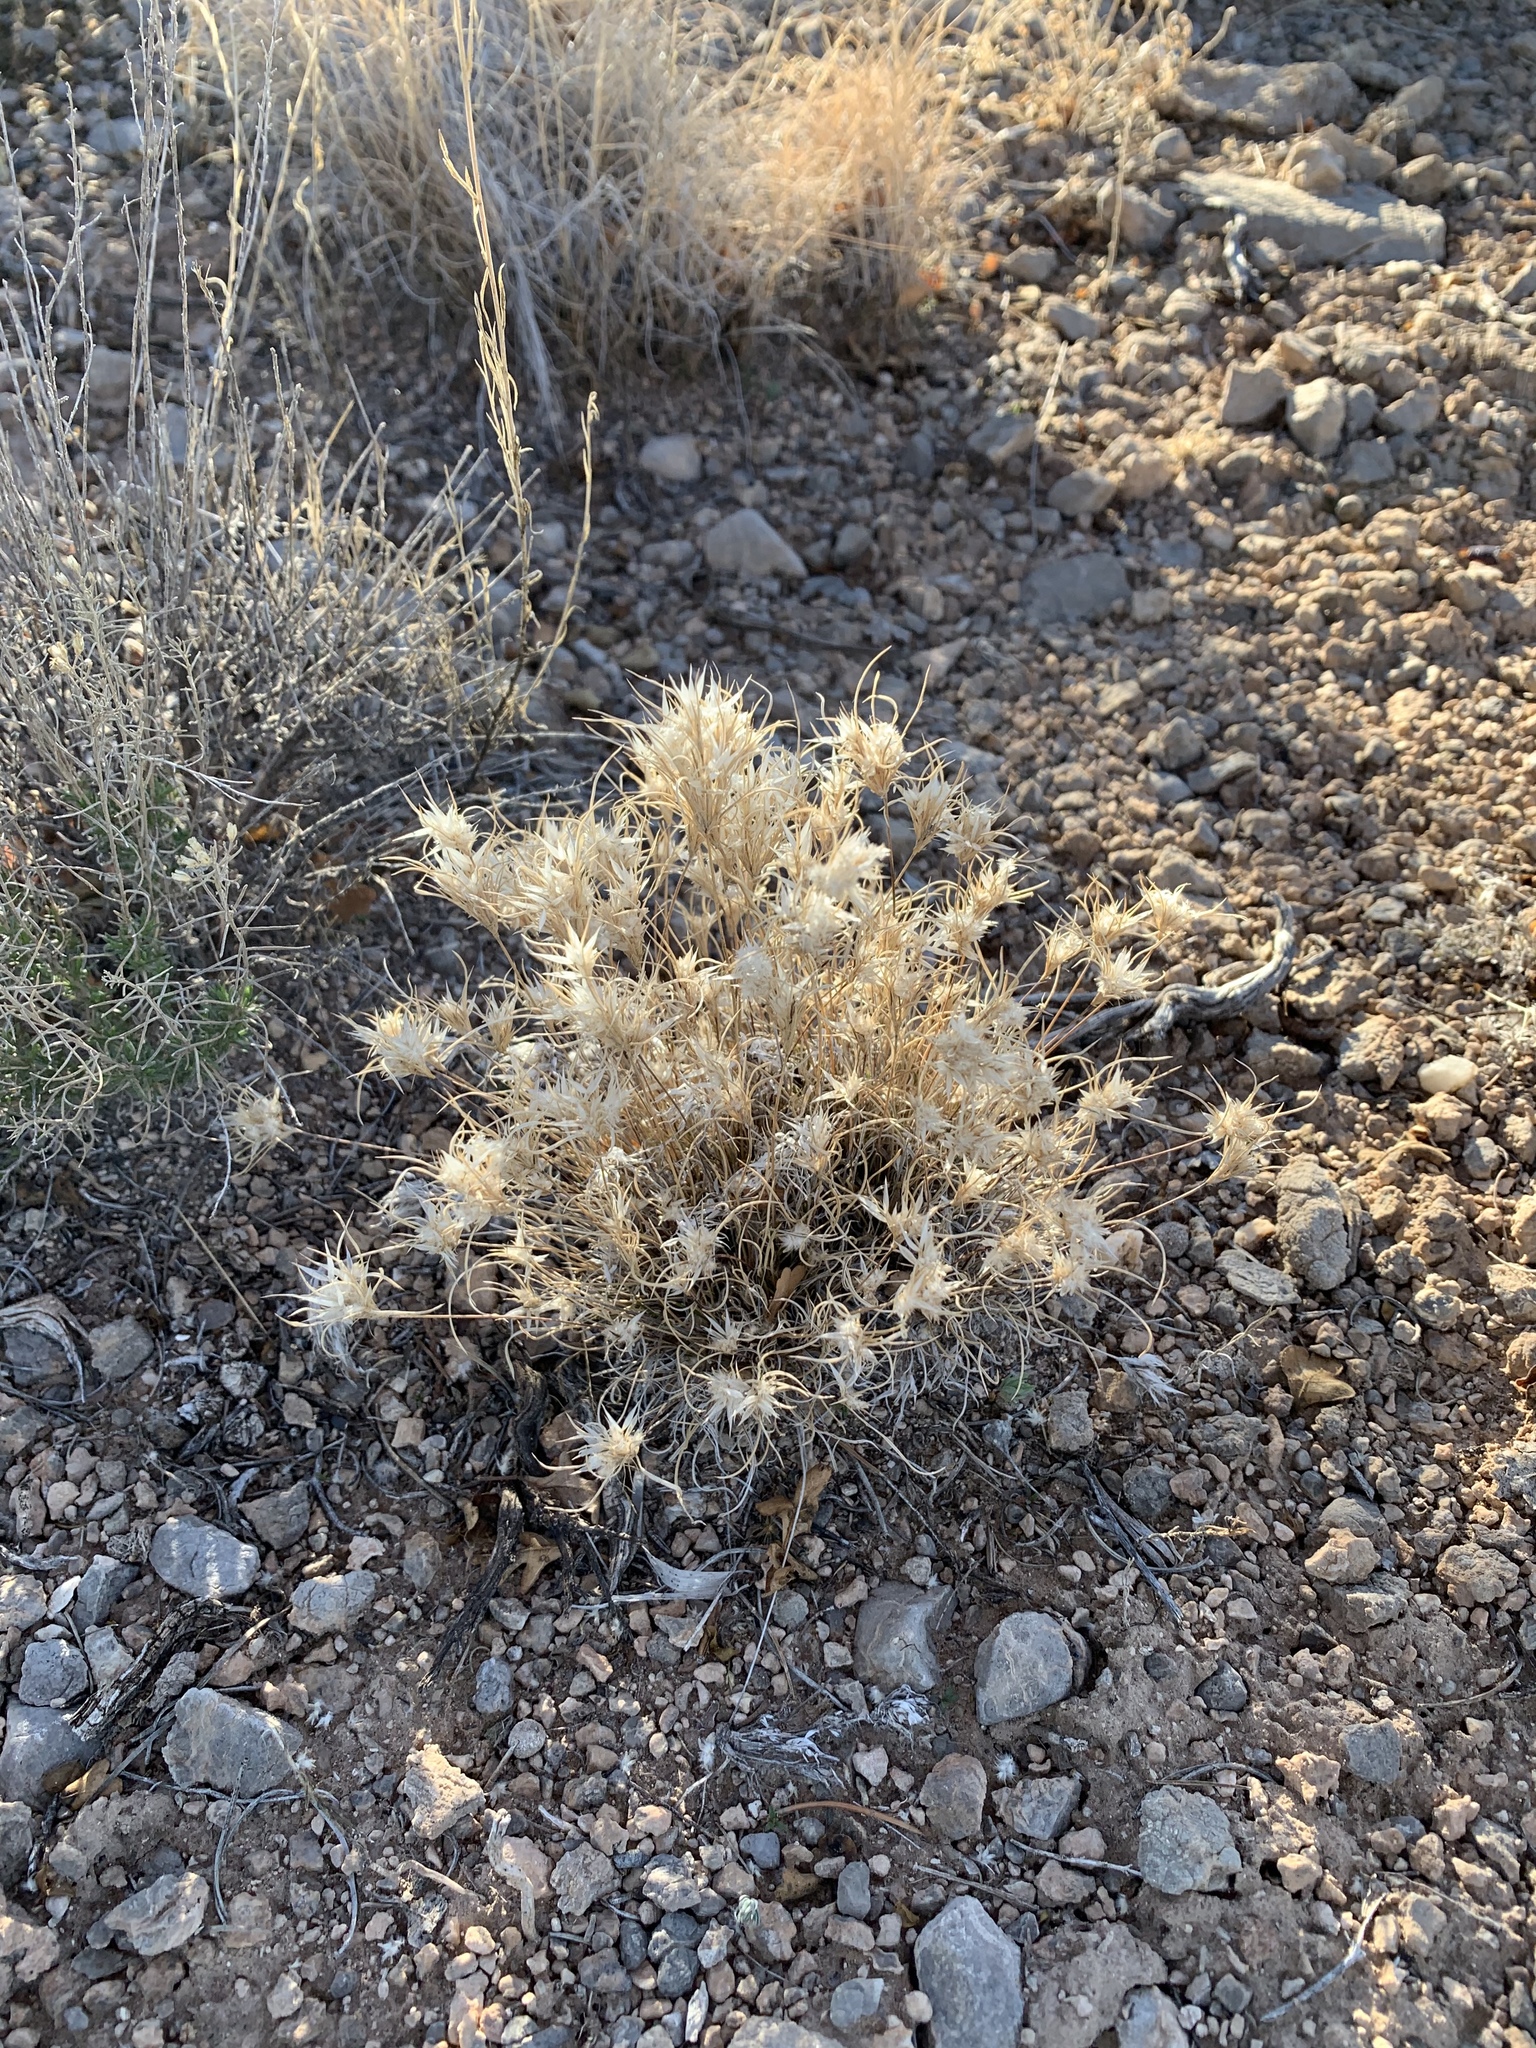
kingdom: Plantae
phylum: Tracheophyta
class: Liliopsida
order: Poales
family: Poaceae
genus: Dasyochloa
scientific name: Dasyochloa pulchella
